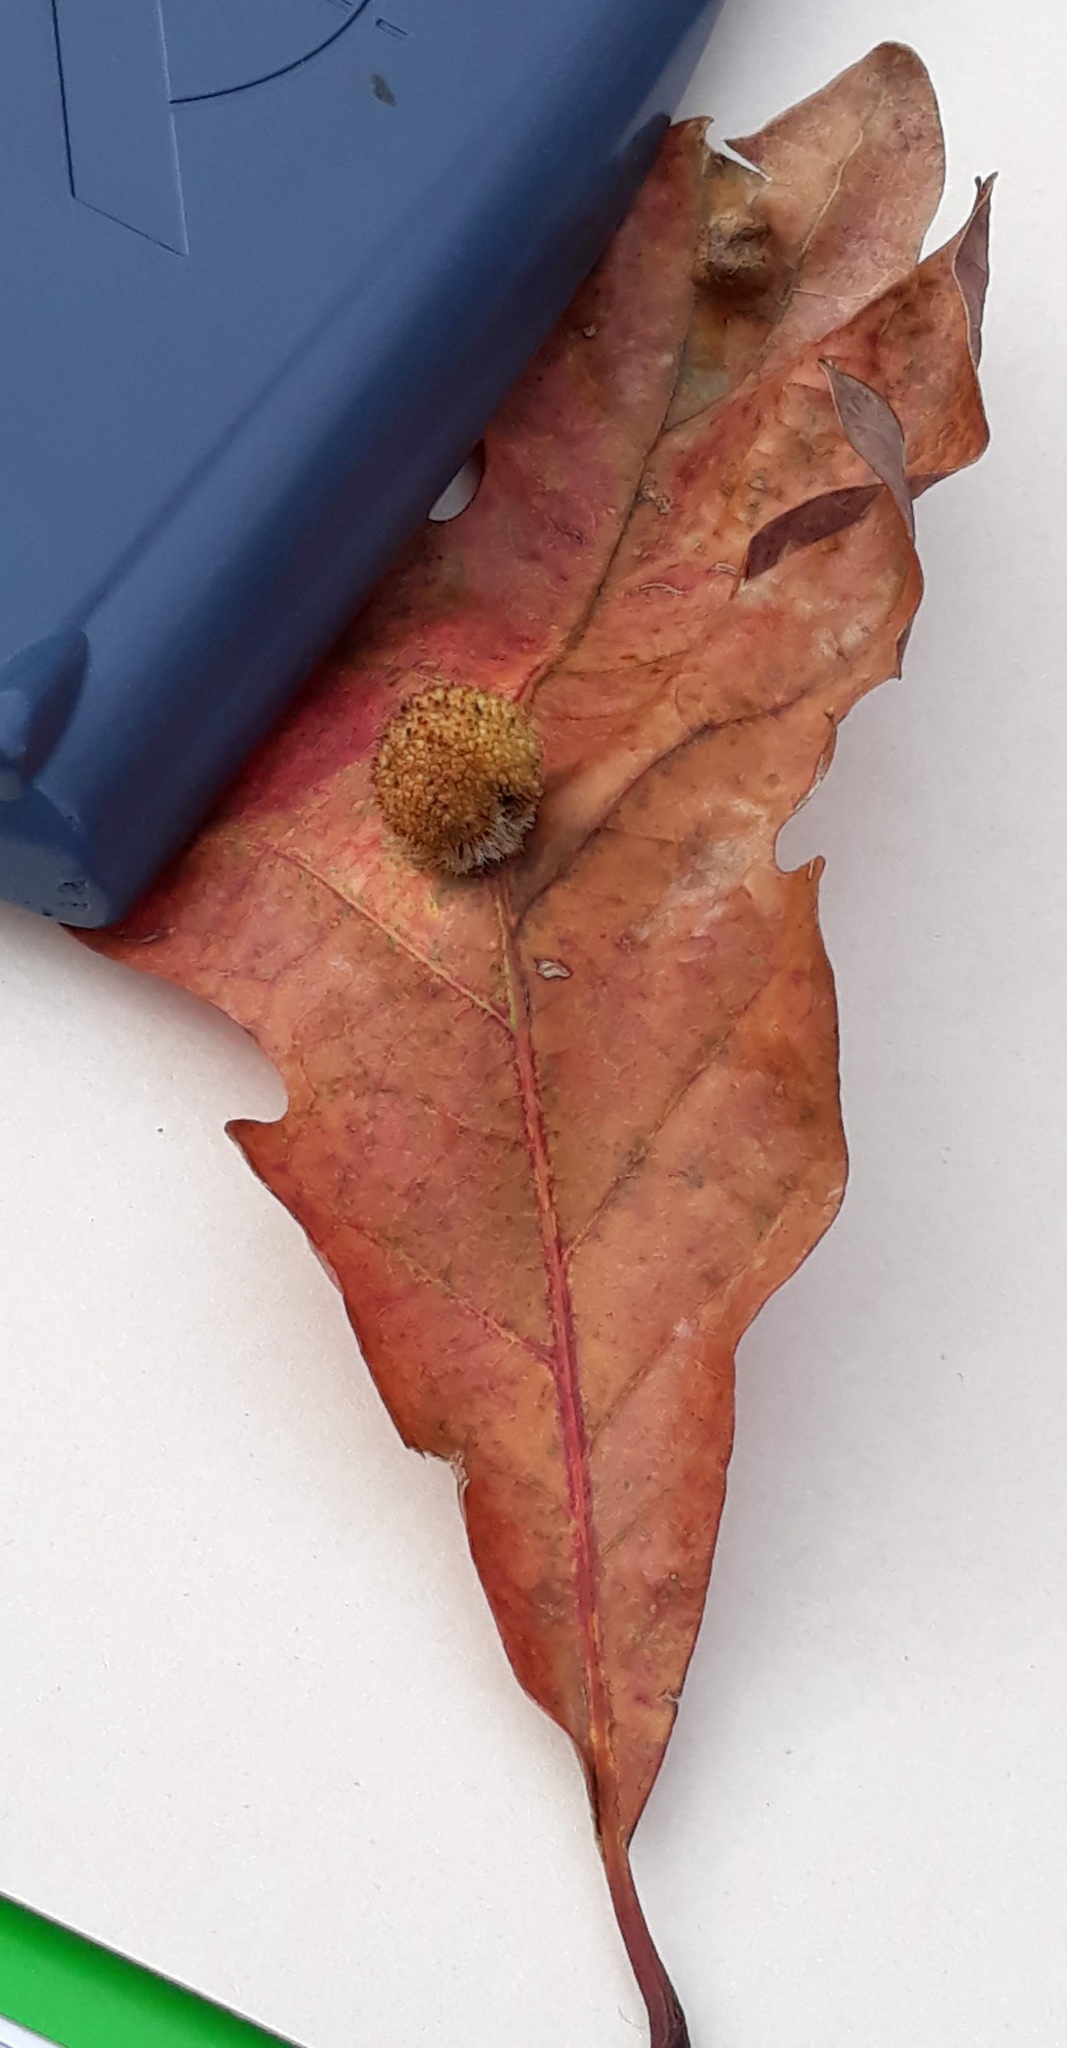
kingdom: Animalia
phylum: Arthropoda
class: Insecta
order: Hymenoptera
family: Cynipidae
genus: Acraspis
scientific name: Acraspis erinacei
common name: Hedgehog gall wasp
